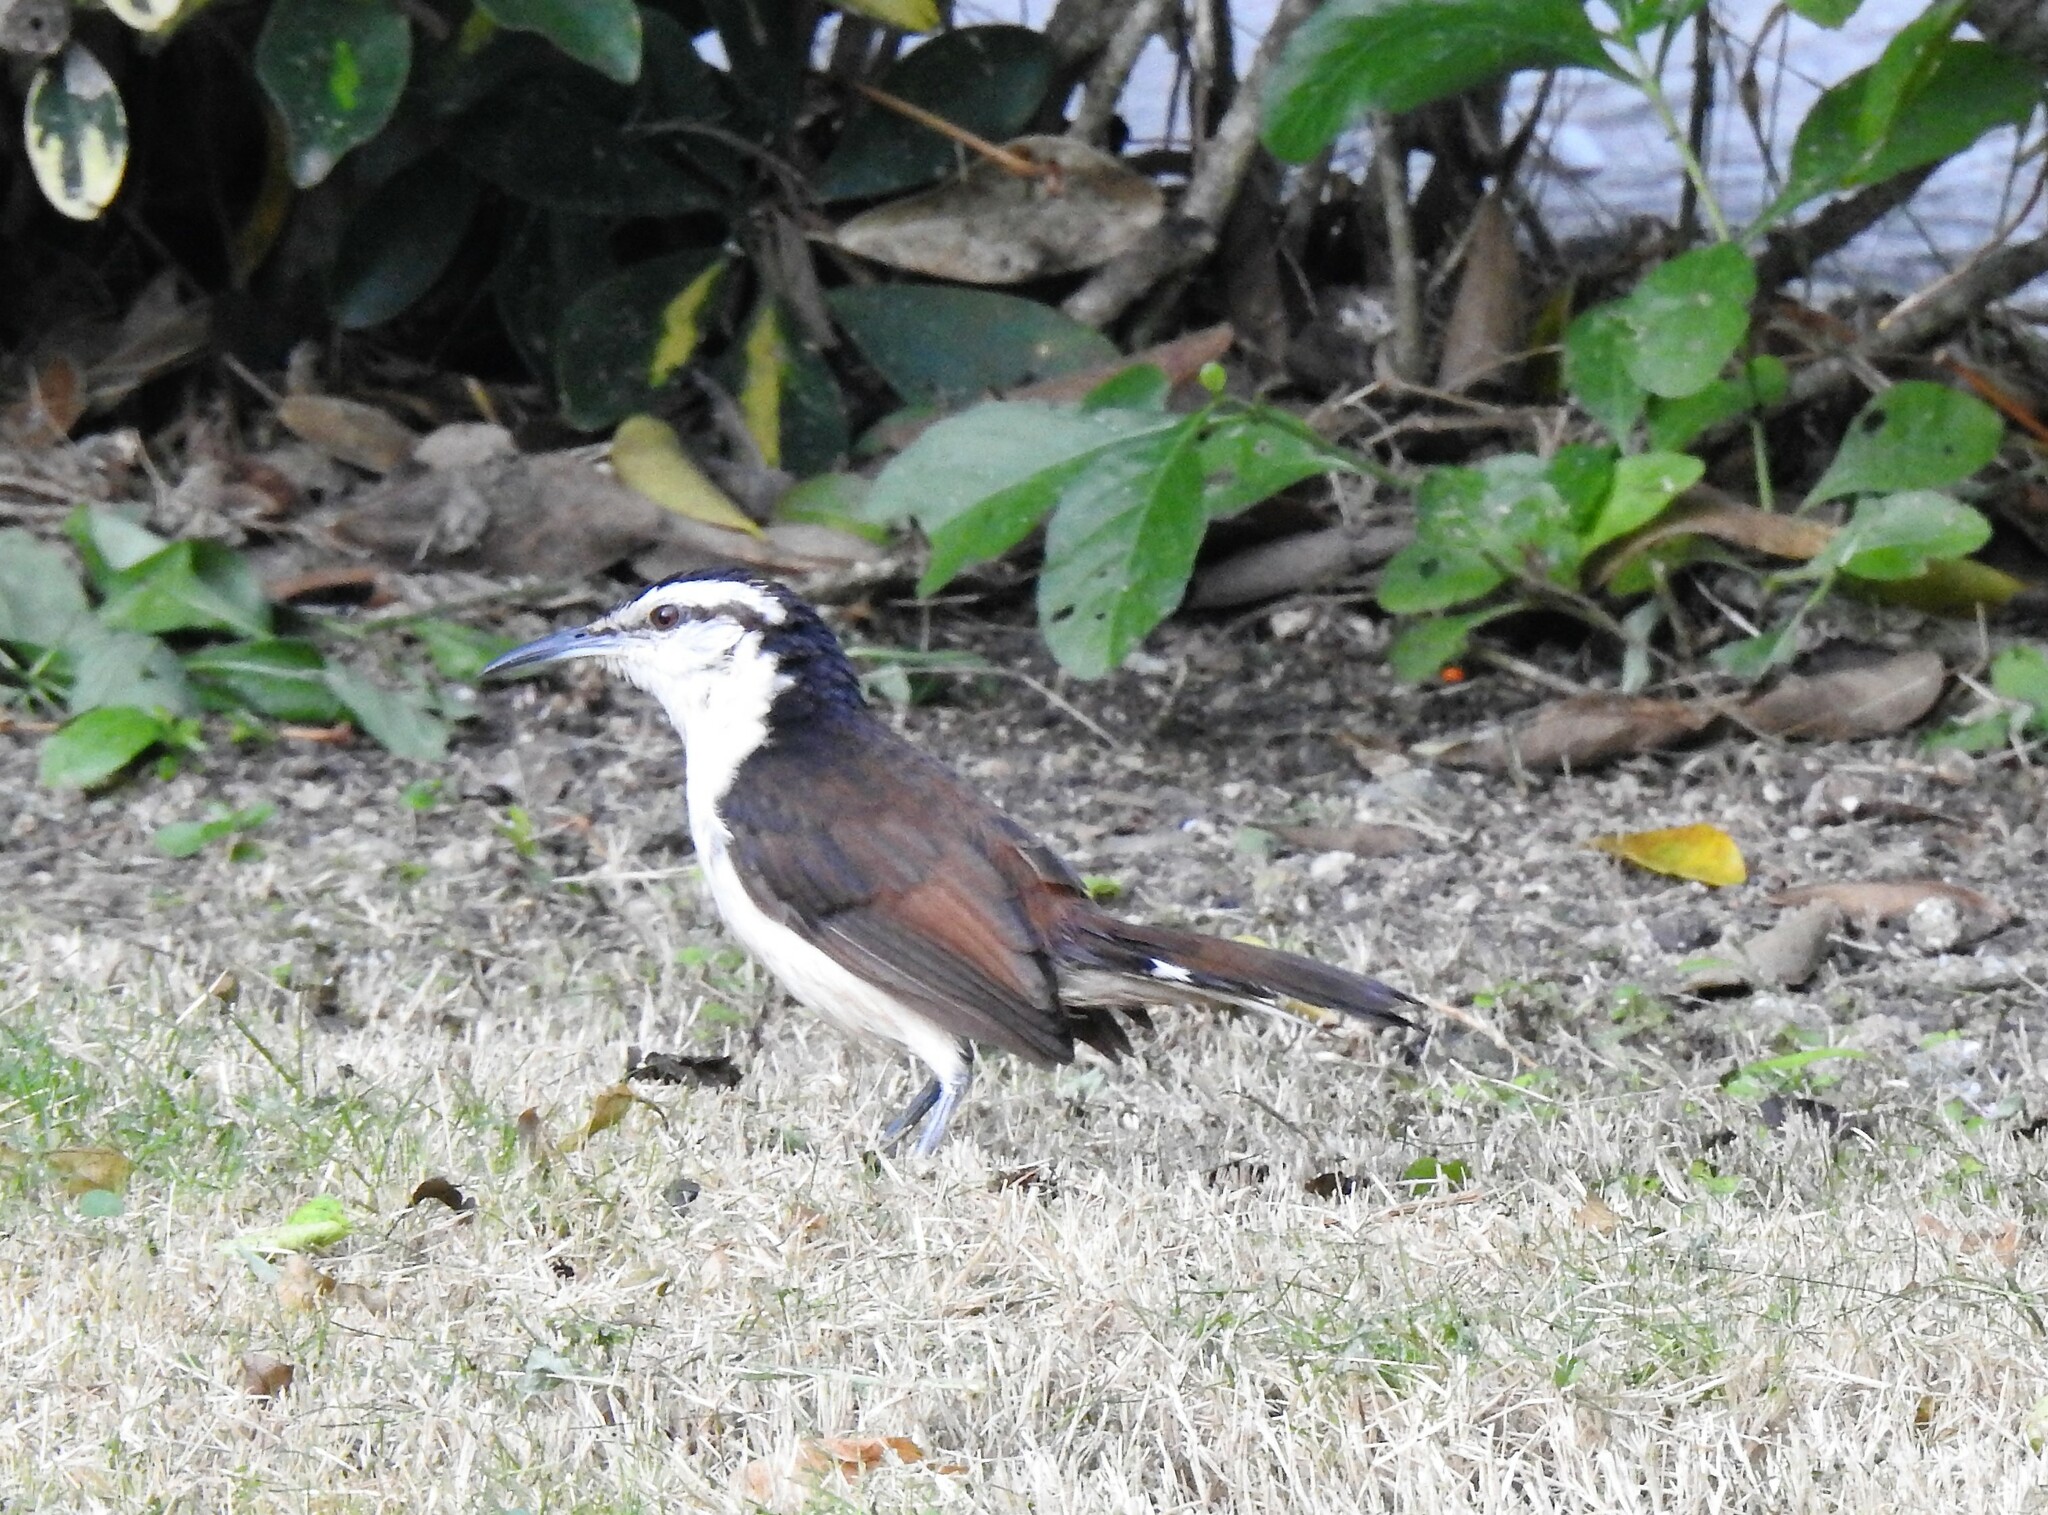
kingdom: Animalia
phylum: Chordata
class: Aves
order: Passeriformes
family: Troglodytidae
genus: Campylorhynchus
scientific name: Campylorhynchus griseus
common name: Bicolored wren
